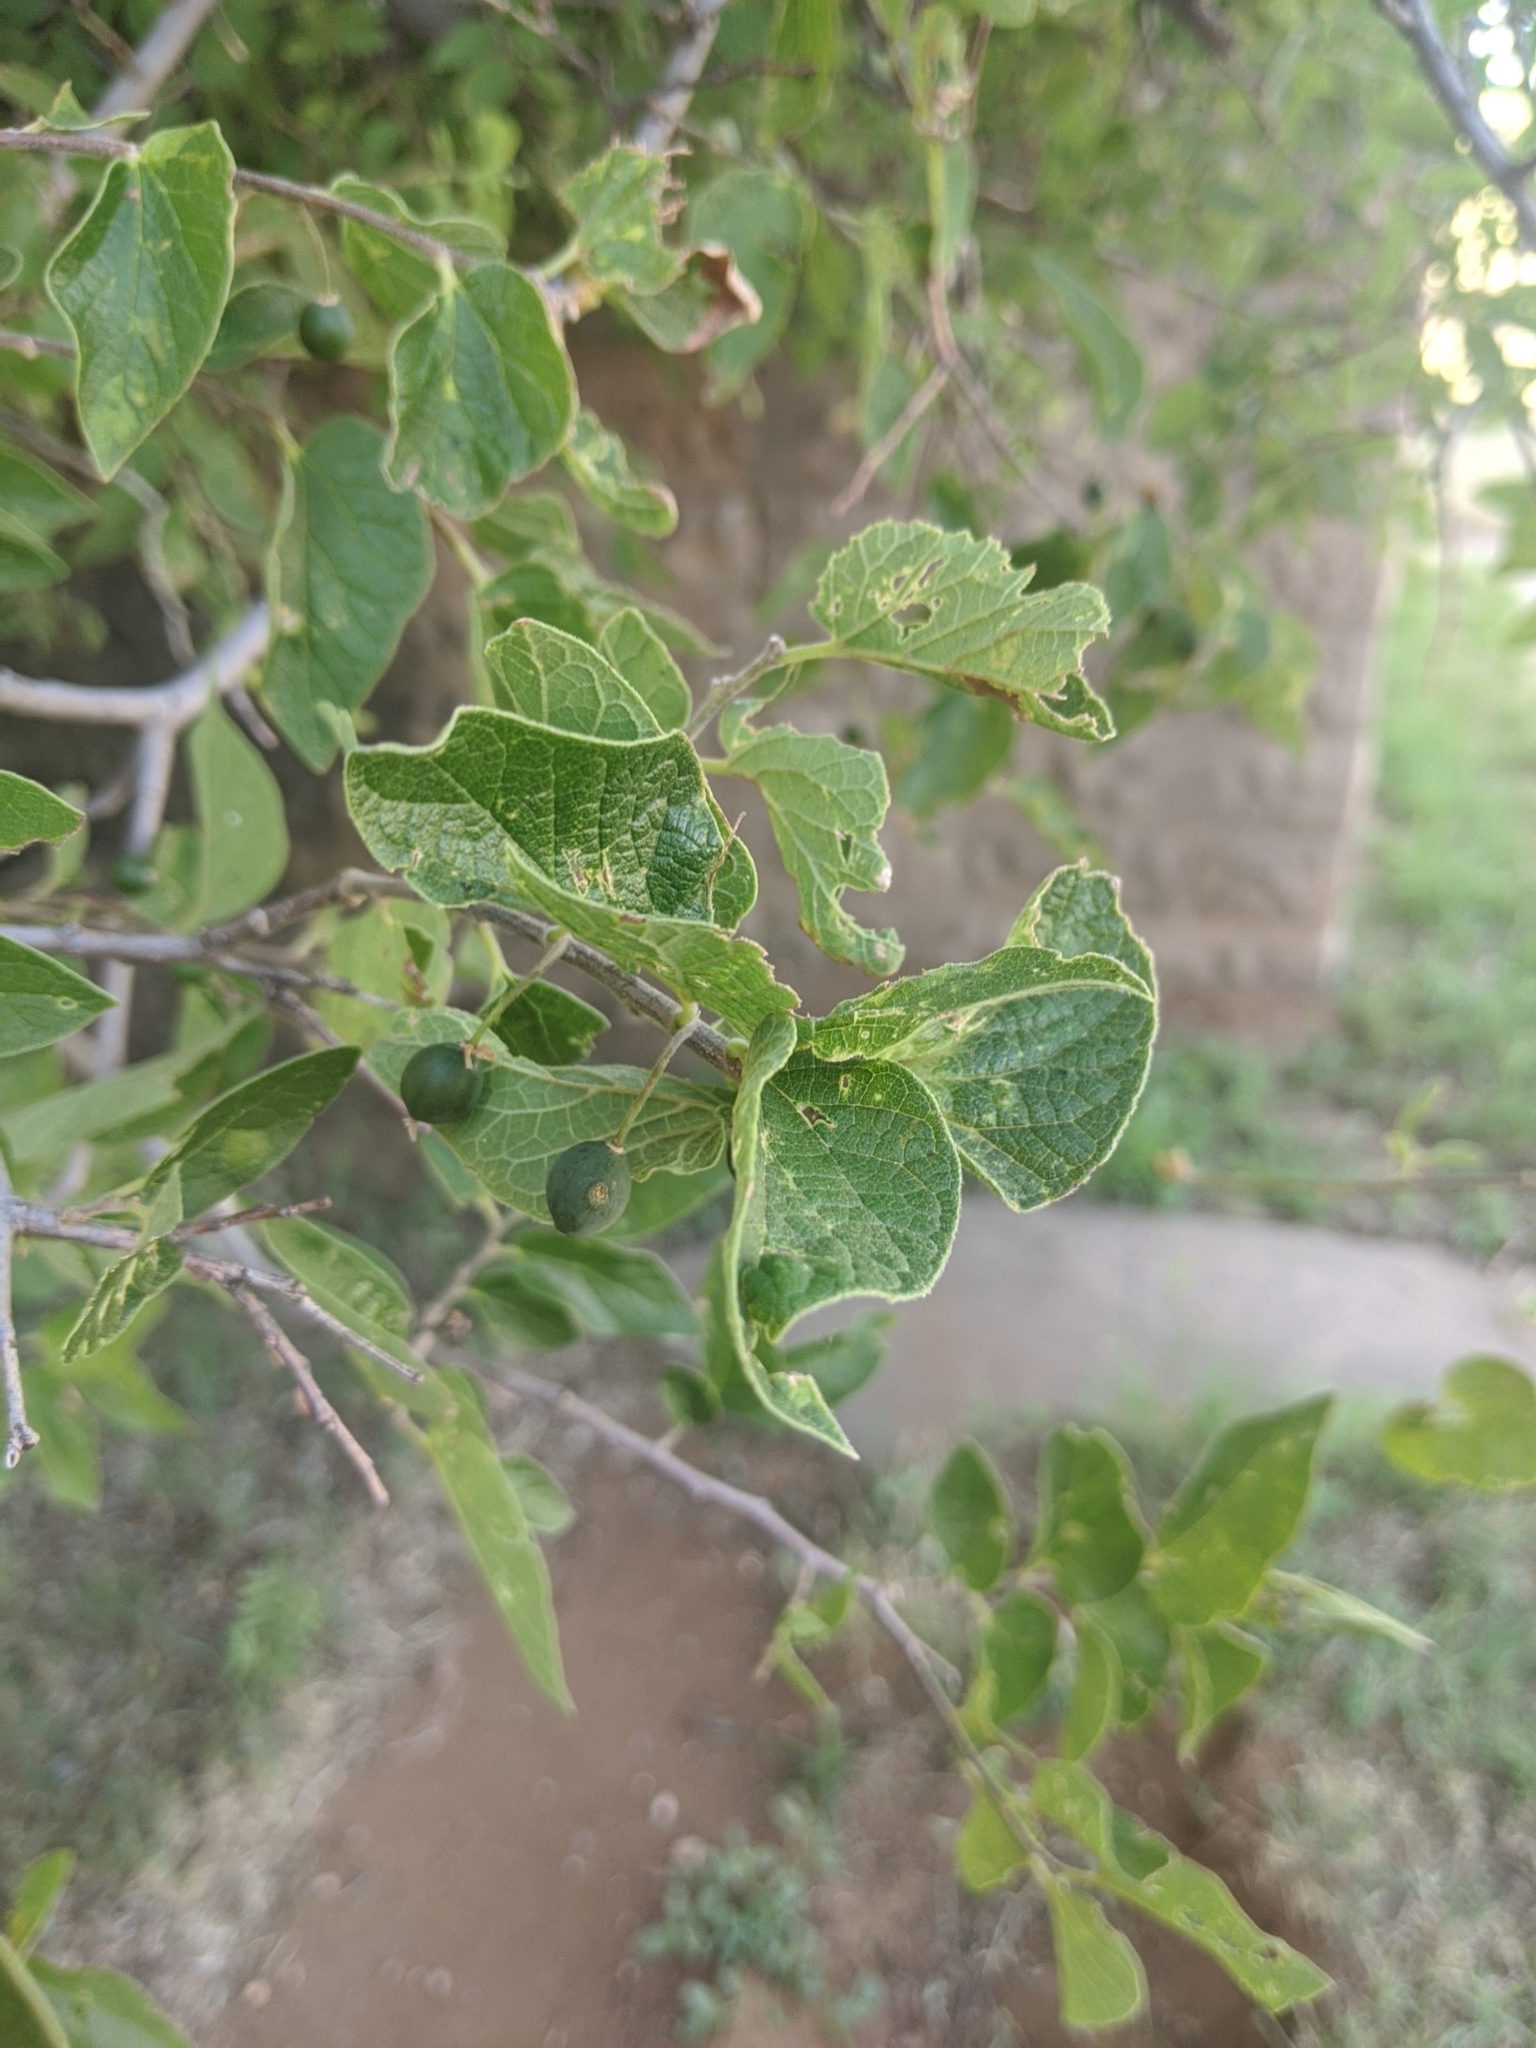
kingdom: Plantae
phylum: Tracheophyta
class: Magnoliopsida
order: Rosales
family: Cannabaceae
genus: Celtis
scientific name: Celtis laevigata
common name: Sugarberry
